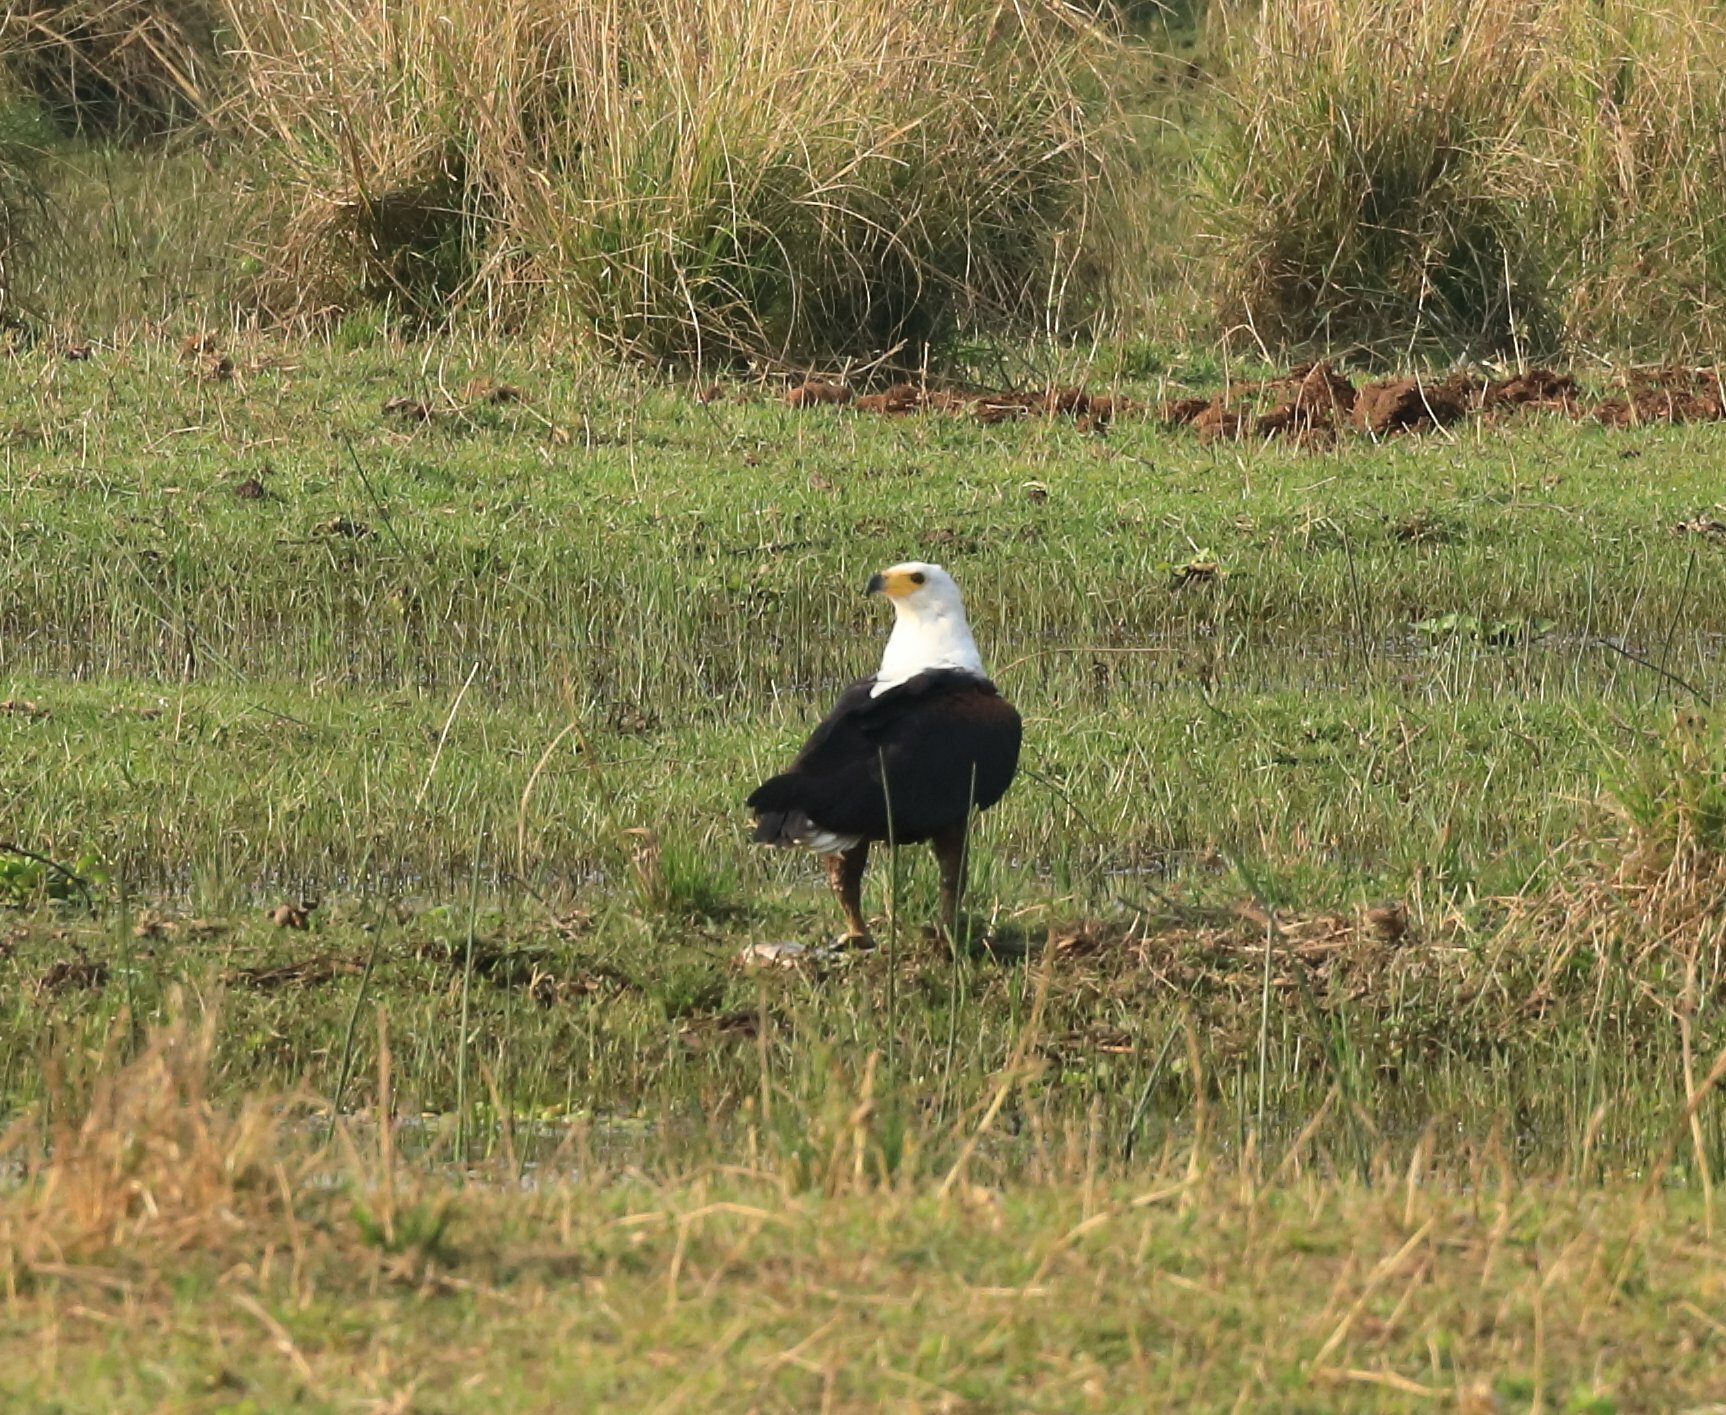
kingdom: Animalia
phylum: Chordata
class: Aves
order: Accipitriformes
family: Accipitridae
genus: Haliaeetus
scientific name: Haliaeetus vocifer
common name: African fish eagle
